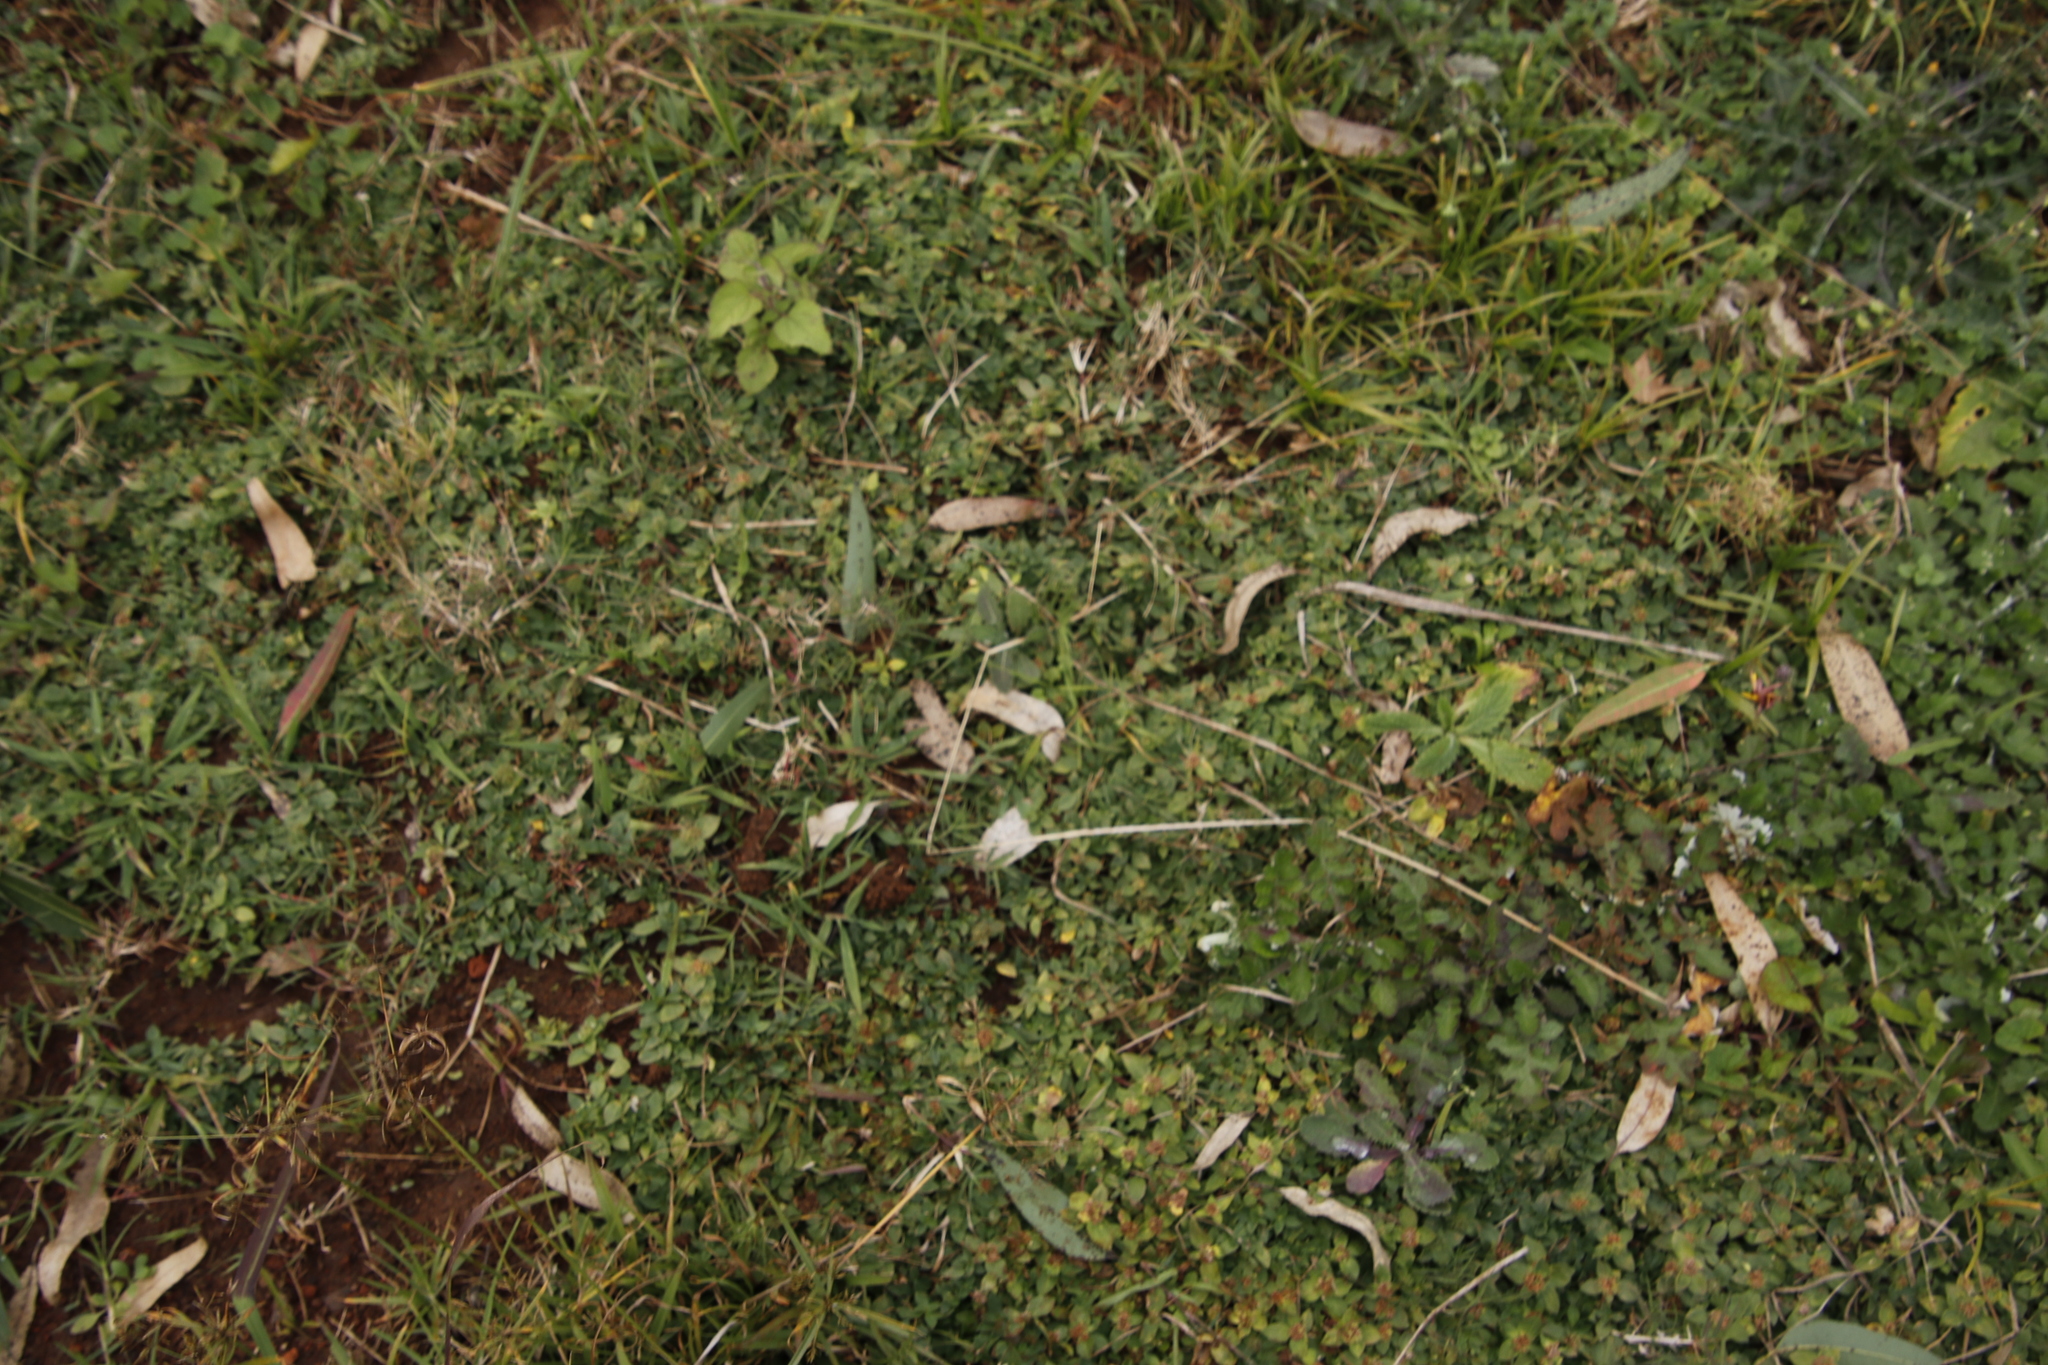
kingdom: Plantae
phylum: Tracheophyta
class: Magnoliopsida
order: Gentianales
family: Rubiaceae
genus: Richardia
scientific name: Richardia brasiliensis
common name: Tropical mexican clover
